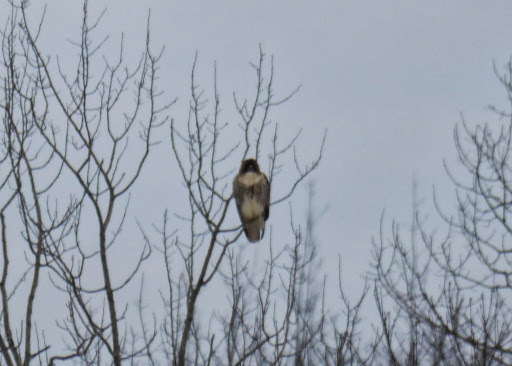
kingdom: Animalia
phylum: Chordata
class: Aves
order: Accipitriformes
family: Accipitridae
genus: Buteo
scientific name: Buteo jamaicensis
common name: Red-tailed hawk
